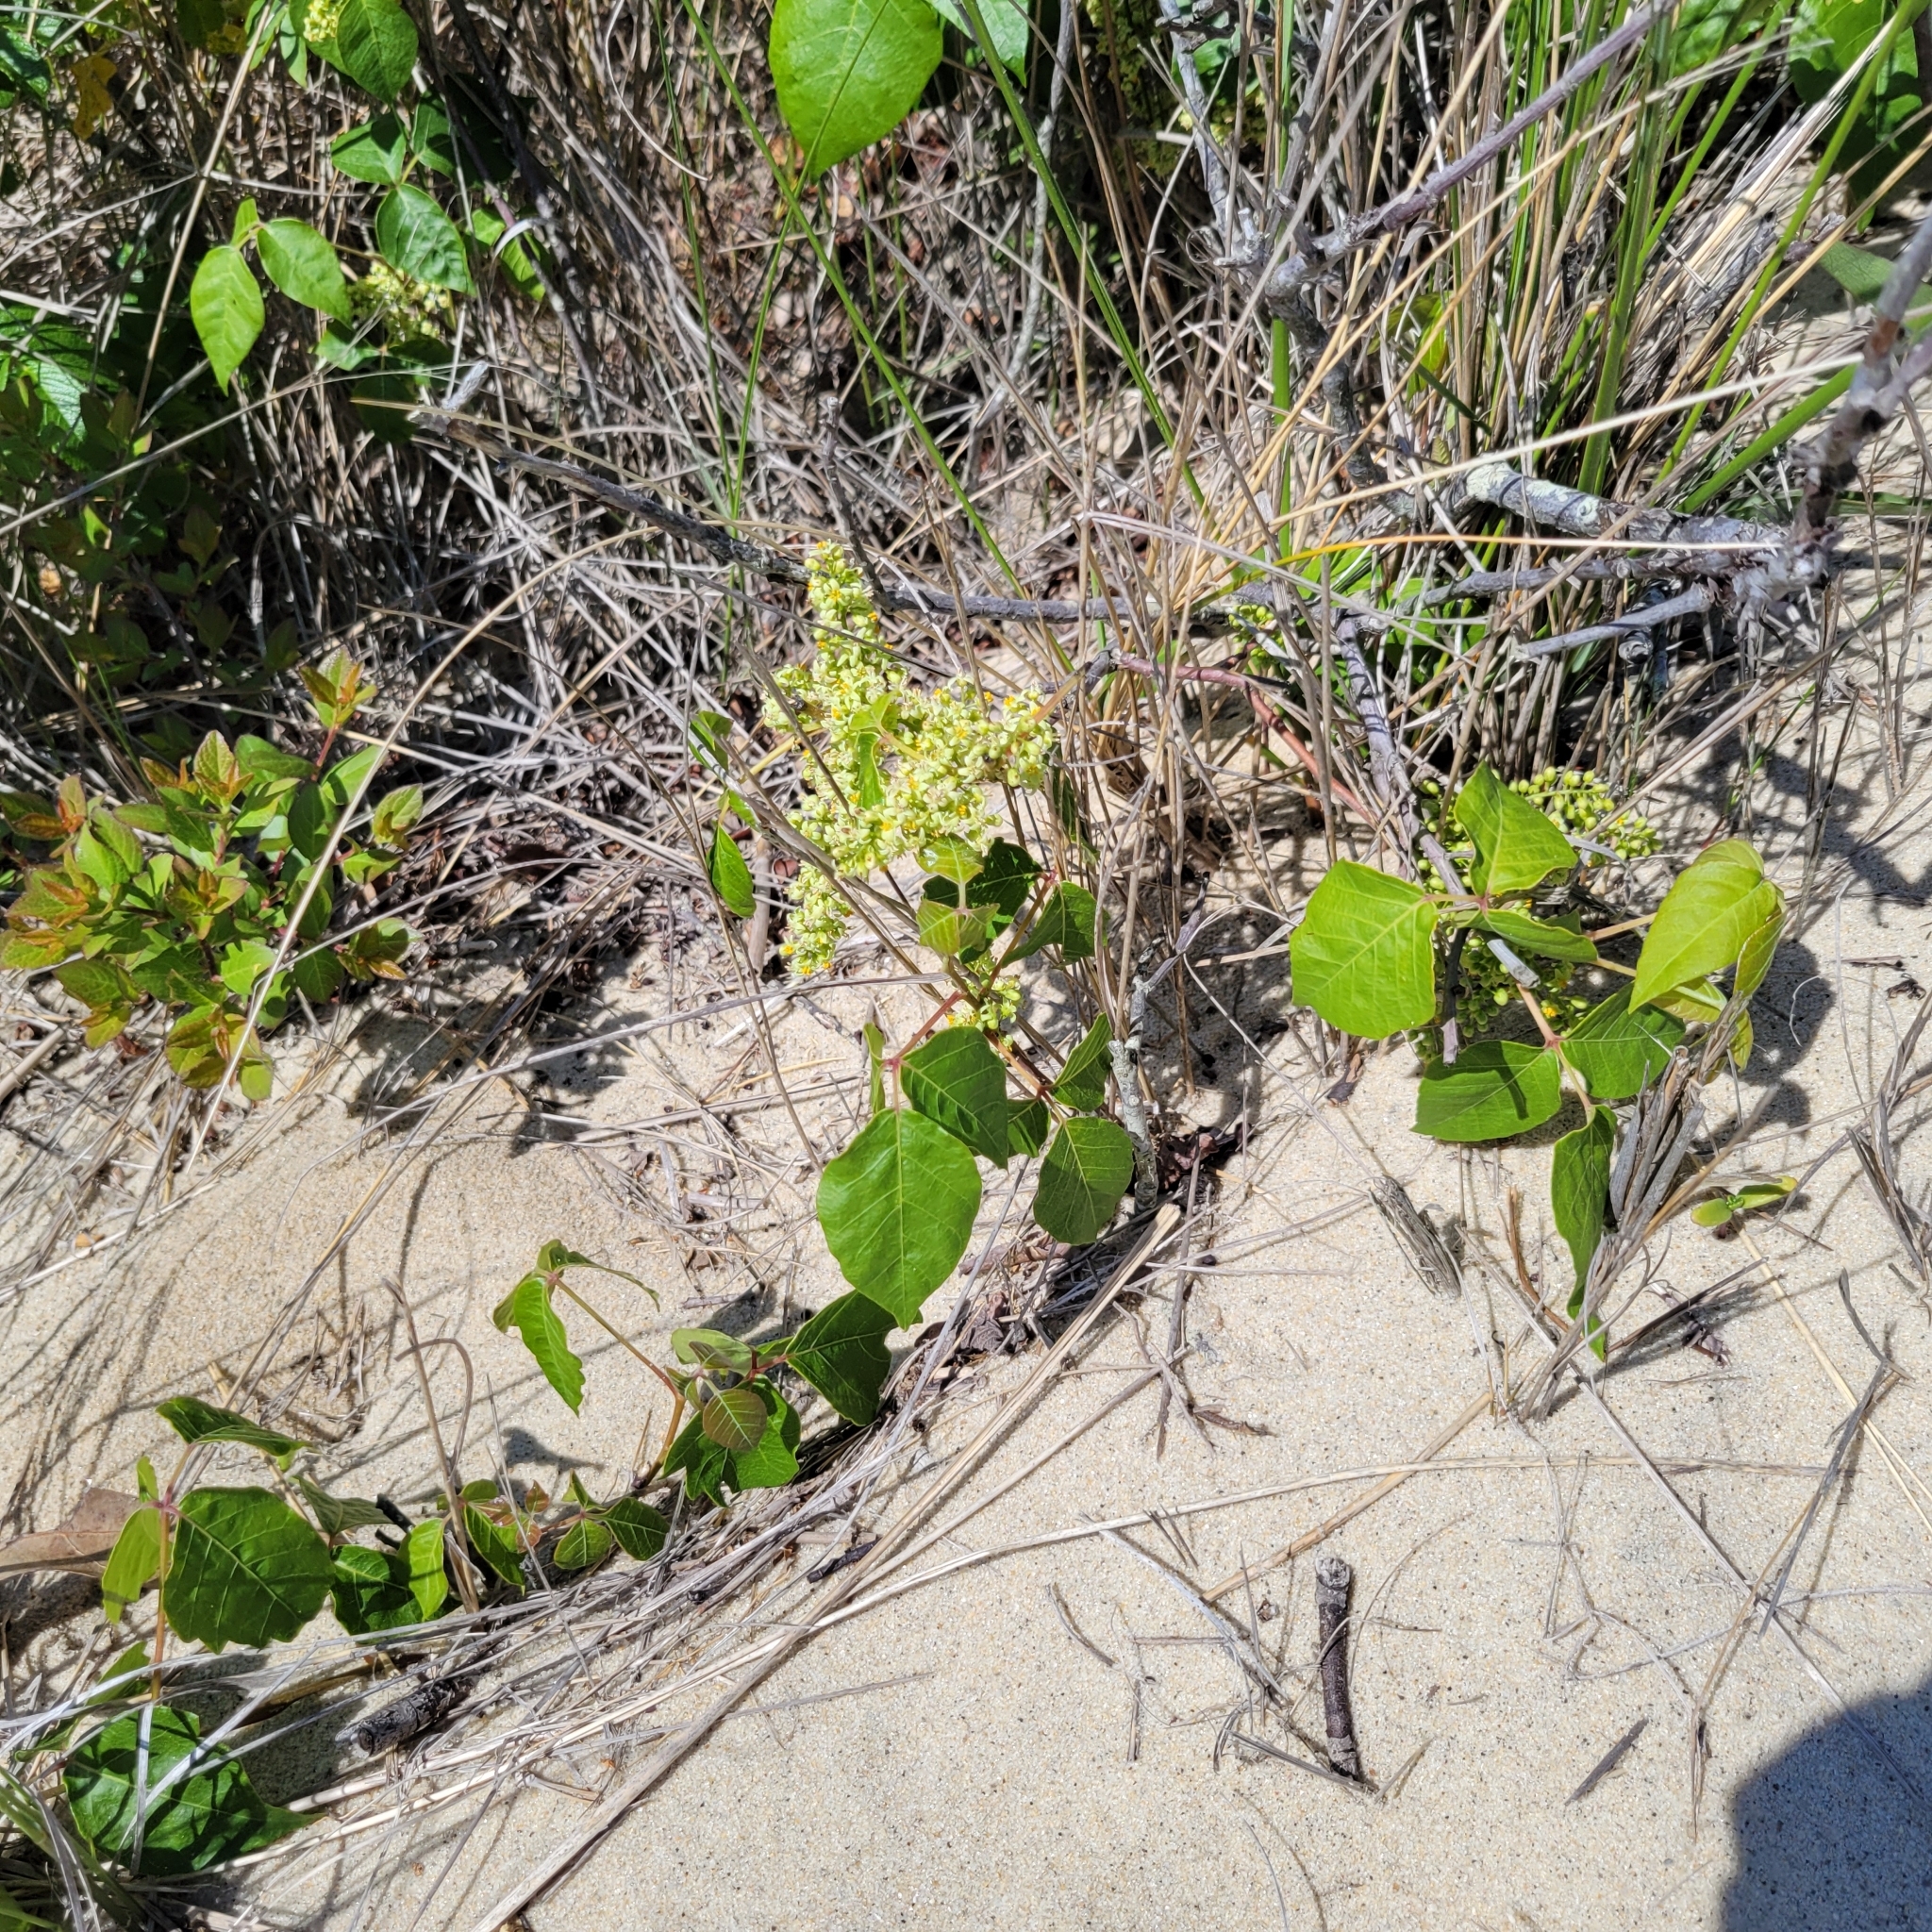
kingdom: Plantae
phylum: Tracheophyta
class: Magnoliopsida
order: Sapindales
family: Anacardiaceae
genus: Toxicodendron
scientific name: Toxicodendron radicans
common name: Poison ivy
